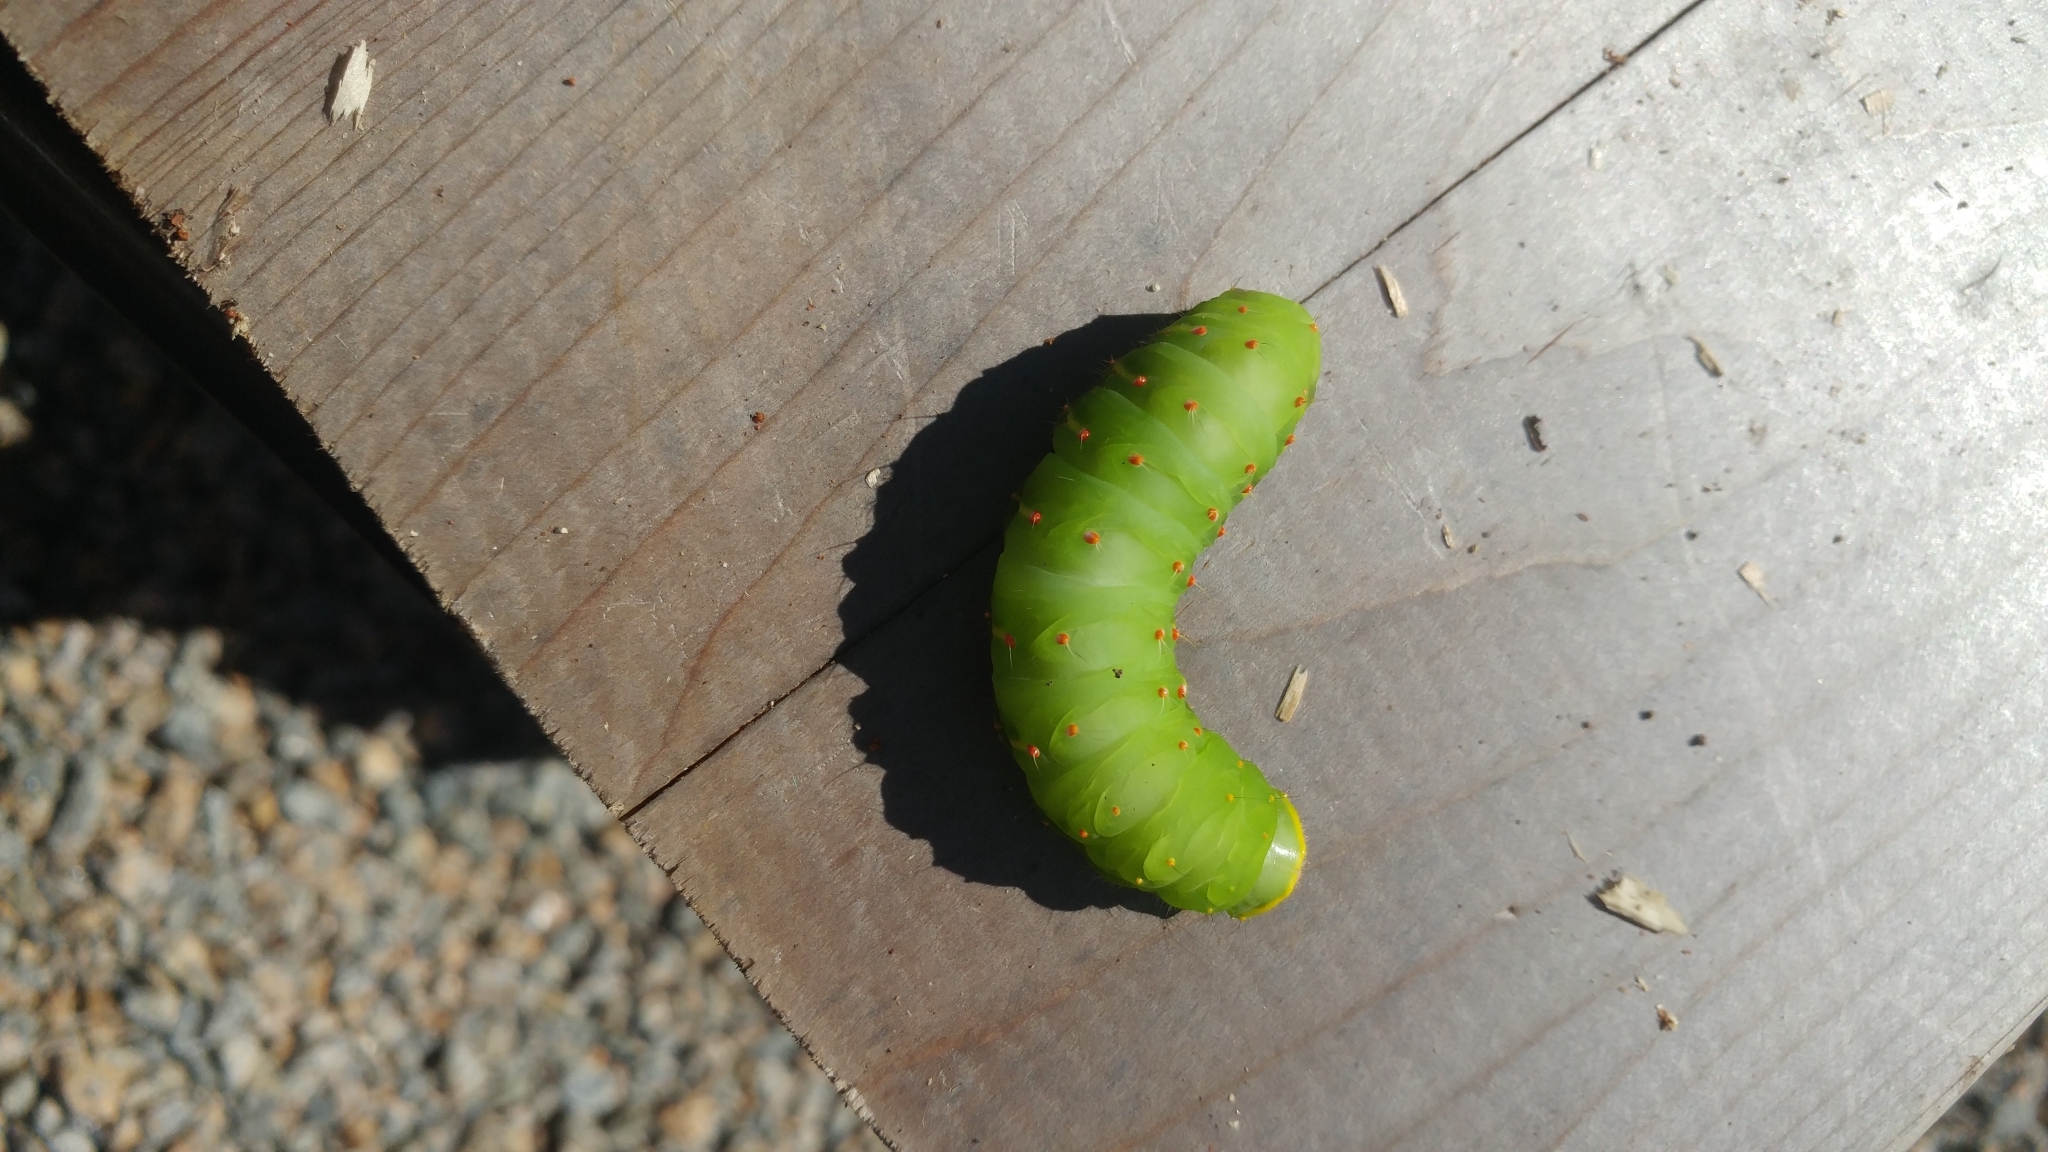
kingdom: Animalia
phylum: Arthropoda
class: Insecta
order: Lepidoptera
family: Saturniidae
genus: Antheraea
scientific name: Antheraea polyphemus
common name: Polyphemus moth
